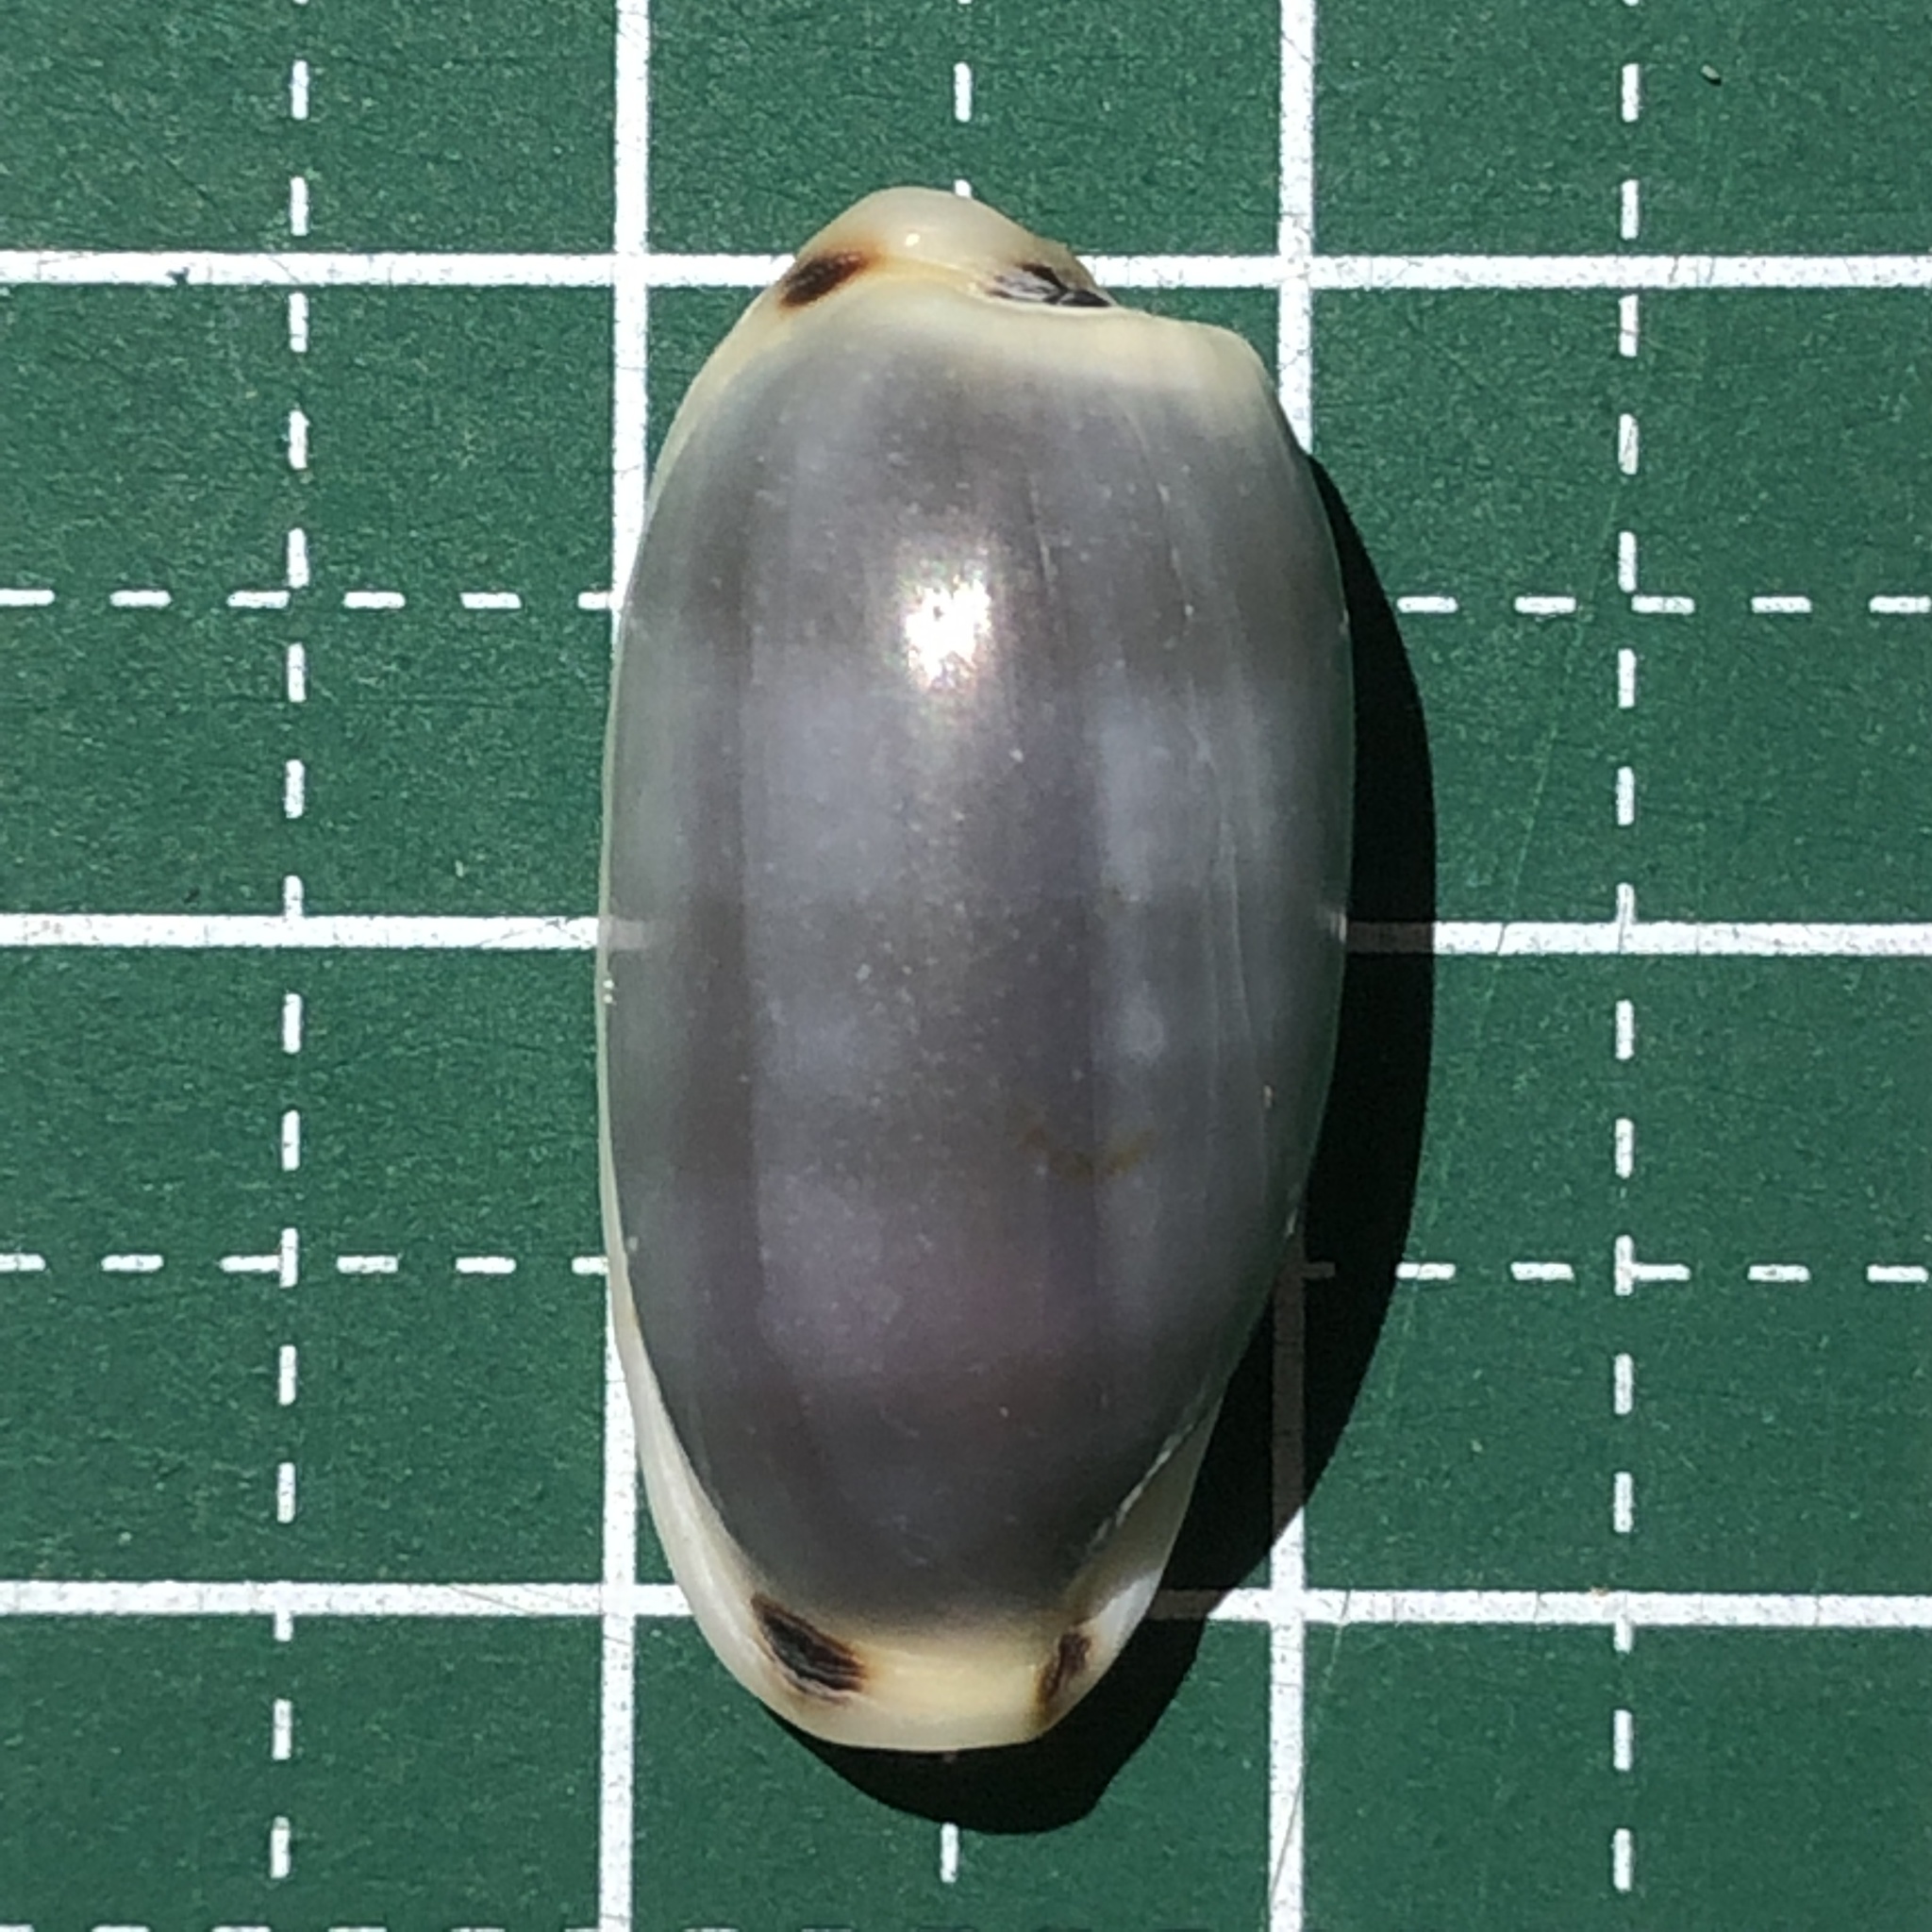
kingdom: Animalia
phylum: Mollusca
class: Gastropoda
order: Littorinimorpha
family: Cypraeidae
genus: Erronea
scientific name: Erronea cylindrica
